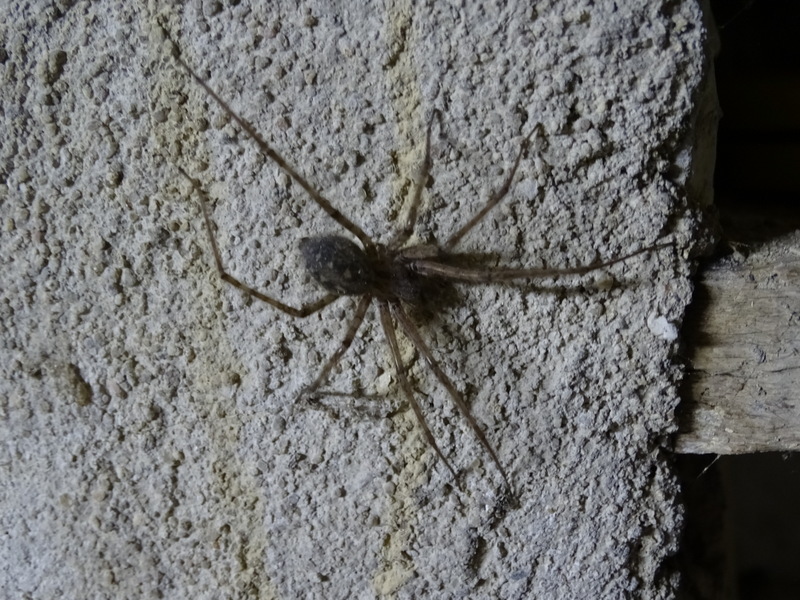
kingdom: Animalia
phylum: Arthropoda
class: Arachnida
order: Araneae
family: Agelenidae
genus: Tegenaria
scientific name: Tegenaria parietina
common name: Cardinal spider
